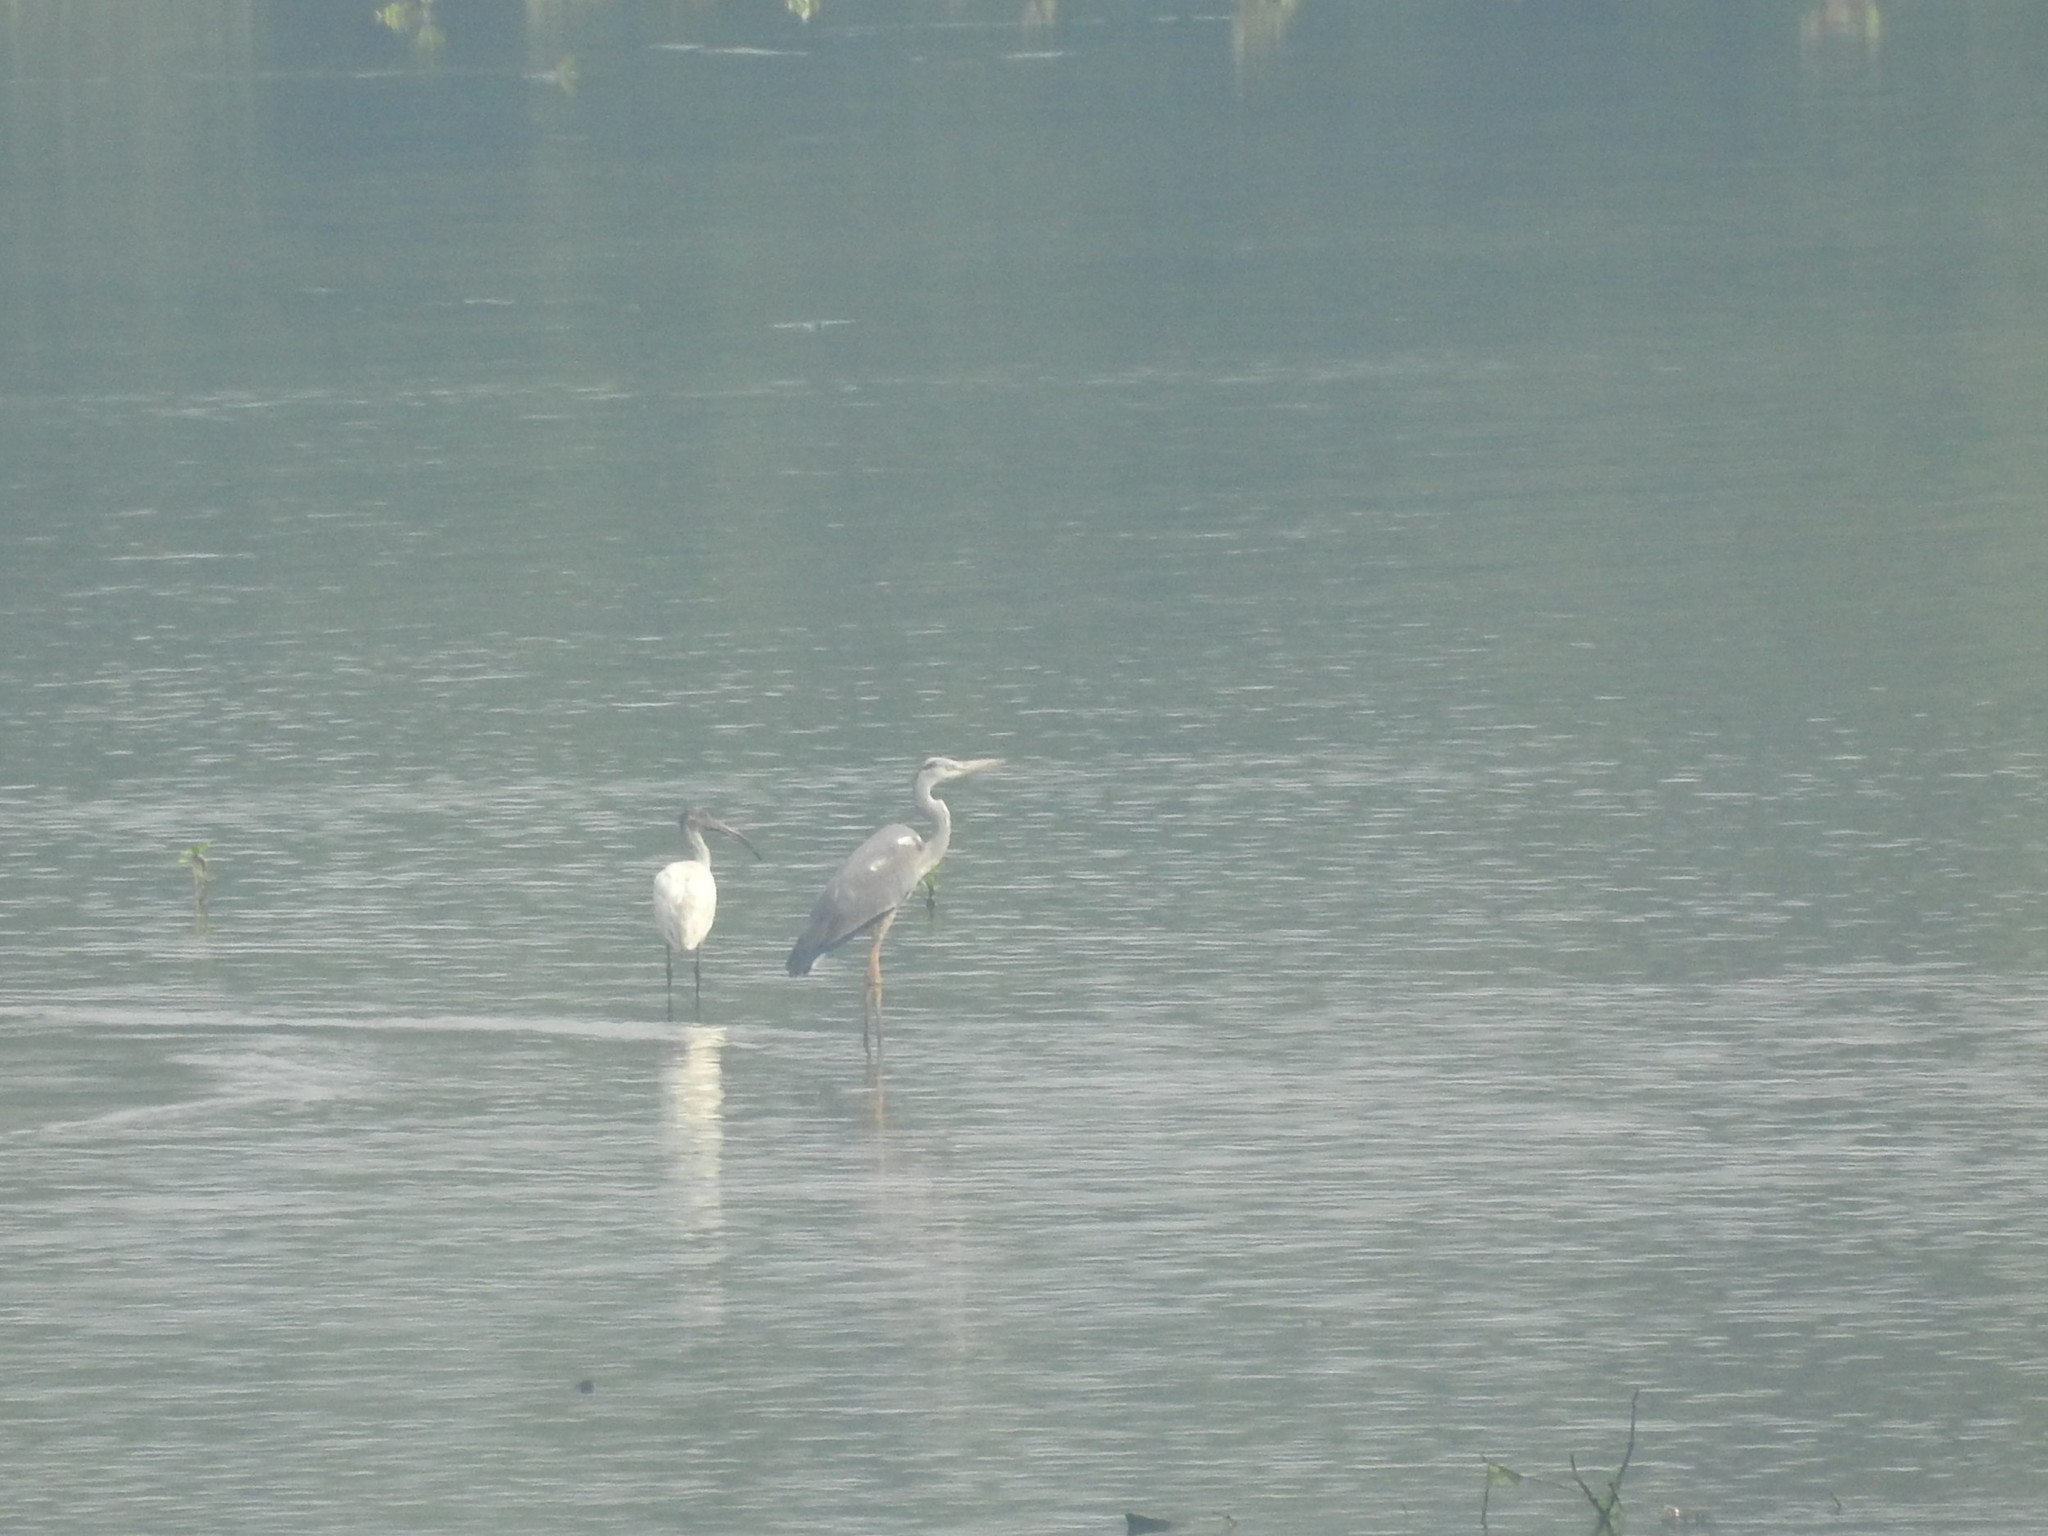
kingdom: Animalia
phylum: Chordata
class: Aves
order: Pelecaniformes
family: Ardeidae
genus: Ardea
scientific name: Ardea cinerea
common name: Grey heron
